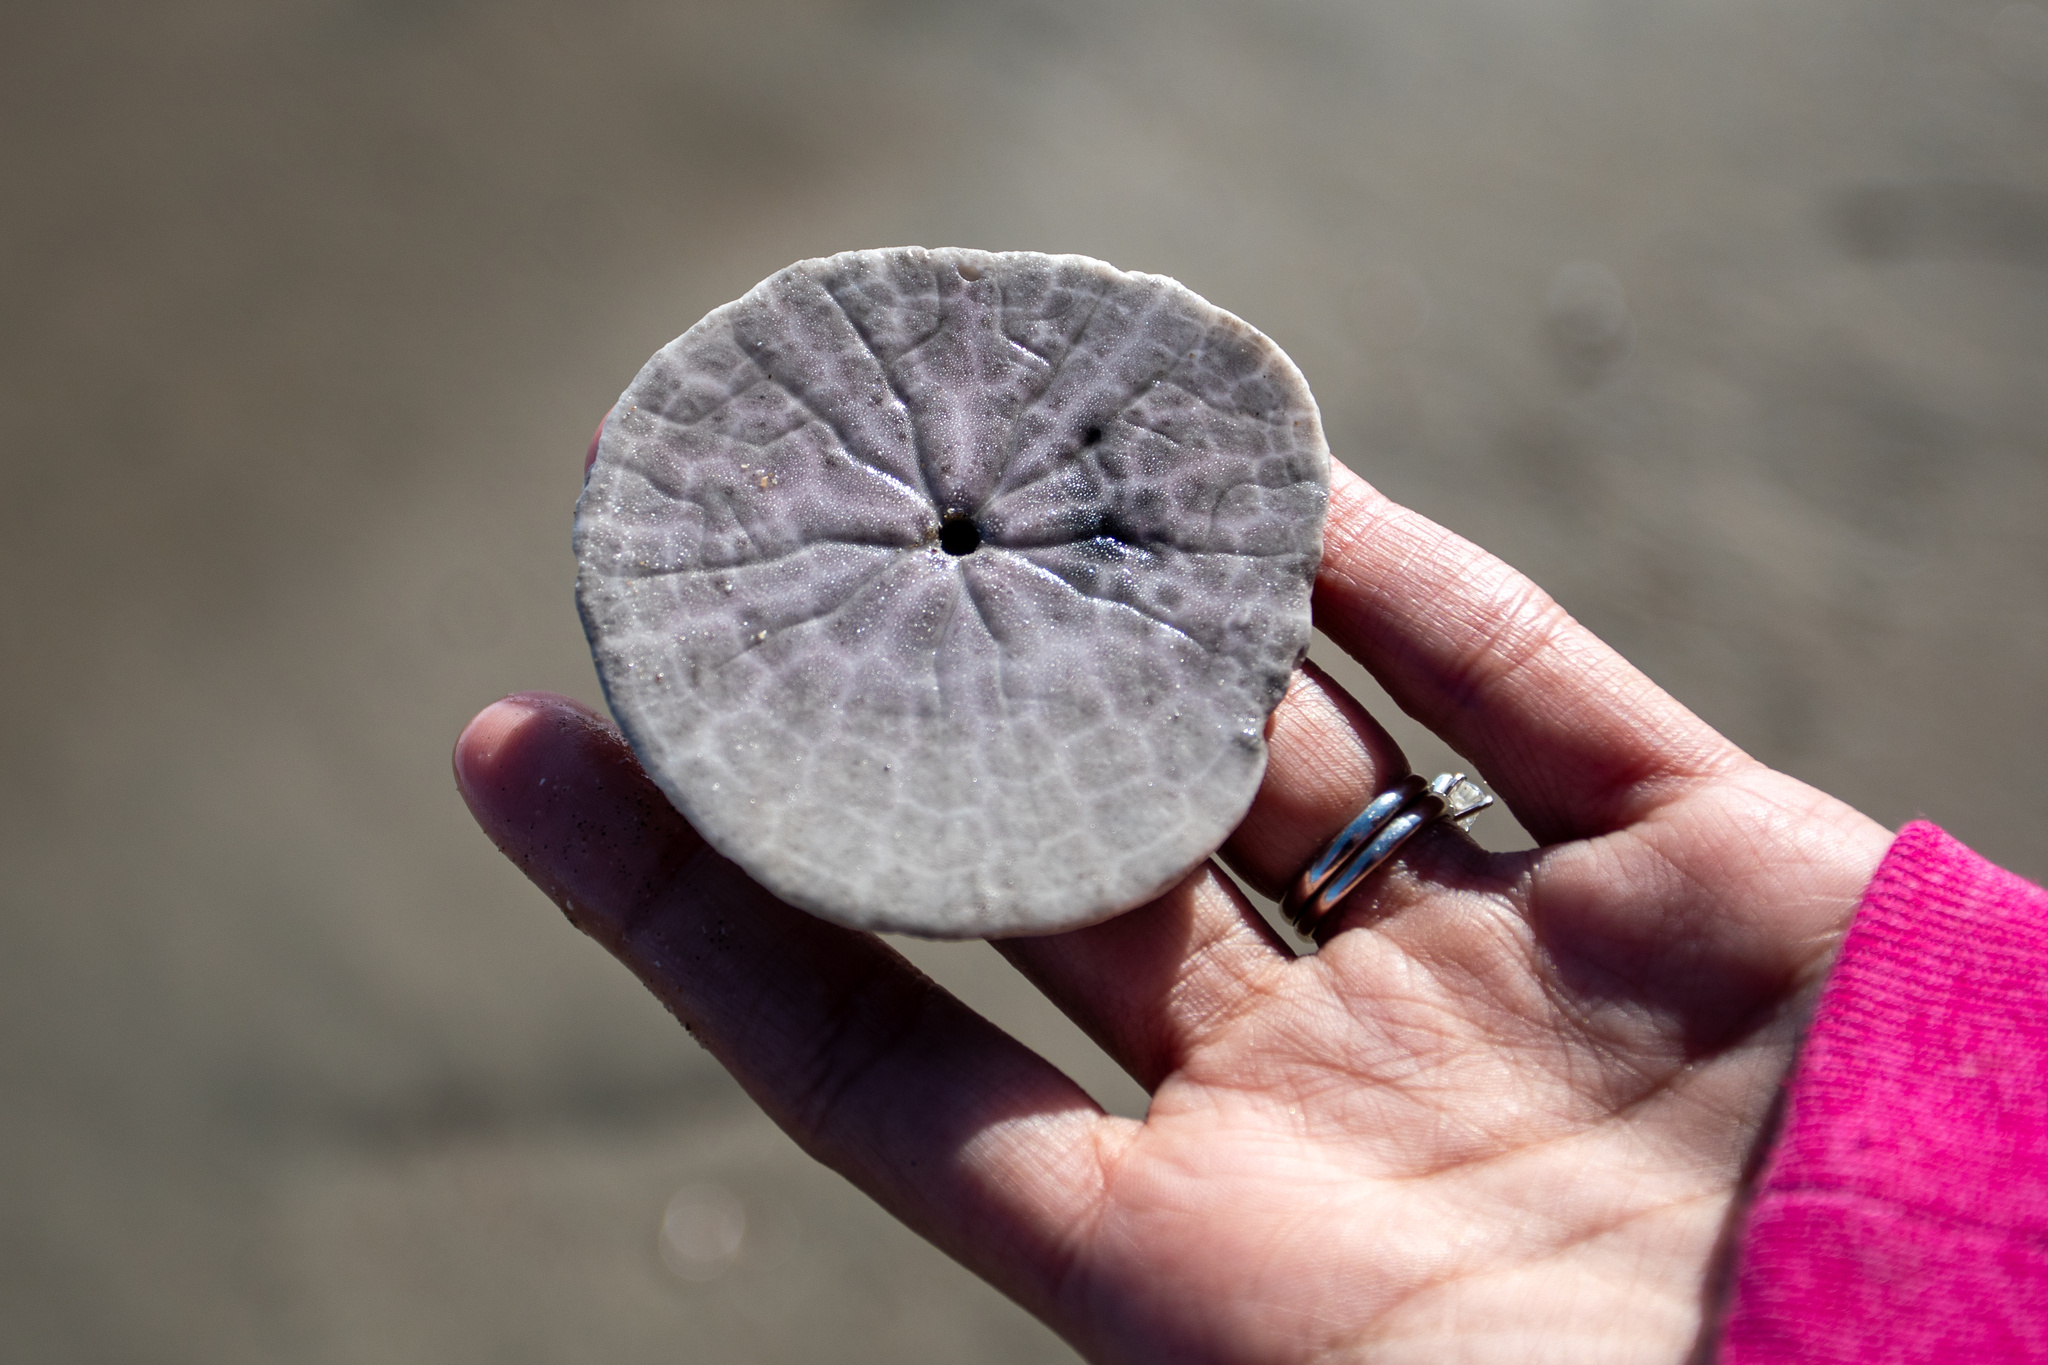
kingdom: Animalia
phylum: Echinodermata
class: Echinoidea
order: Echinolampadacea
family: Dendrasteridae
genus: Dendraster
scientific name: Dendraster excentricus
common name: Eccentric sand dollar sea urchin
